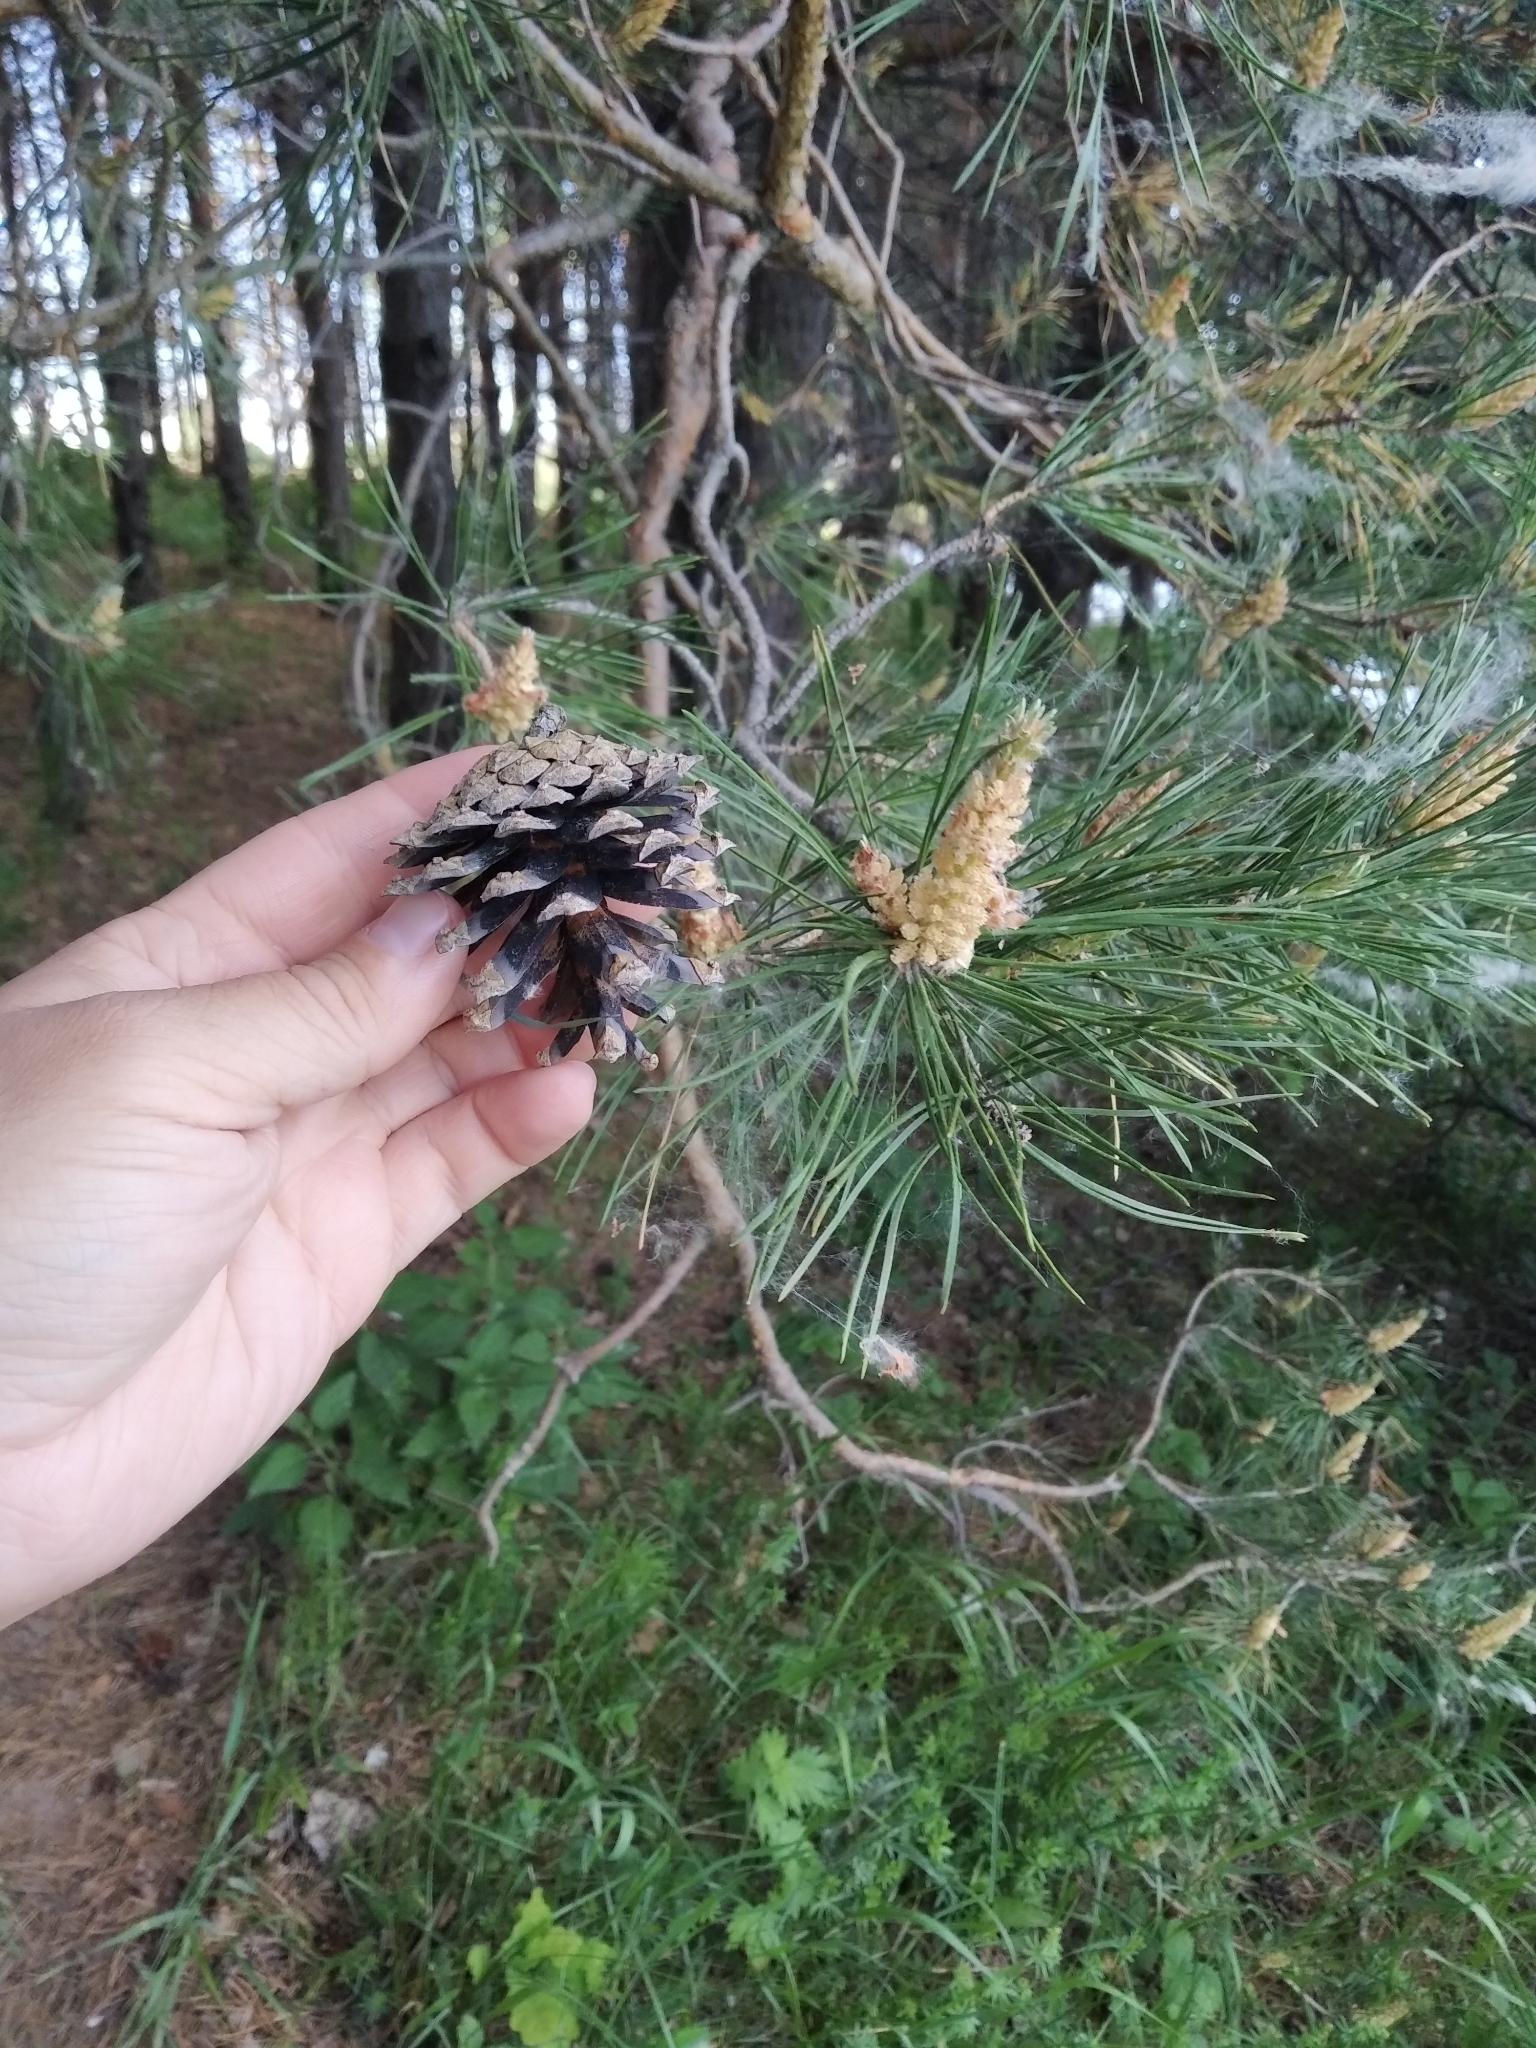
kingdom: Plantae
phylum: Tracheophyta
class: Pinopsida
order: Pinales
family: Pinaceae
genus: Pinus
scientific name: Pinus sylvestris
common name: Scots pine
